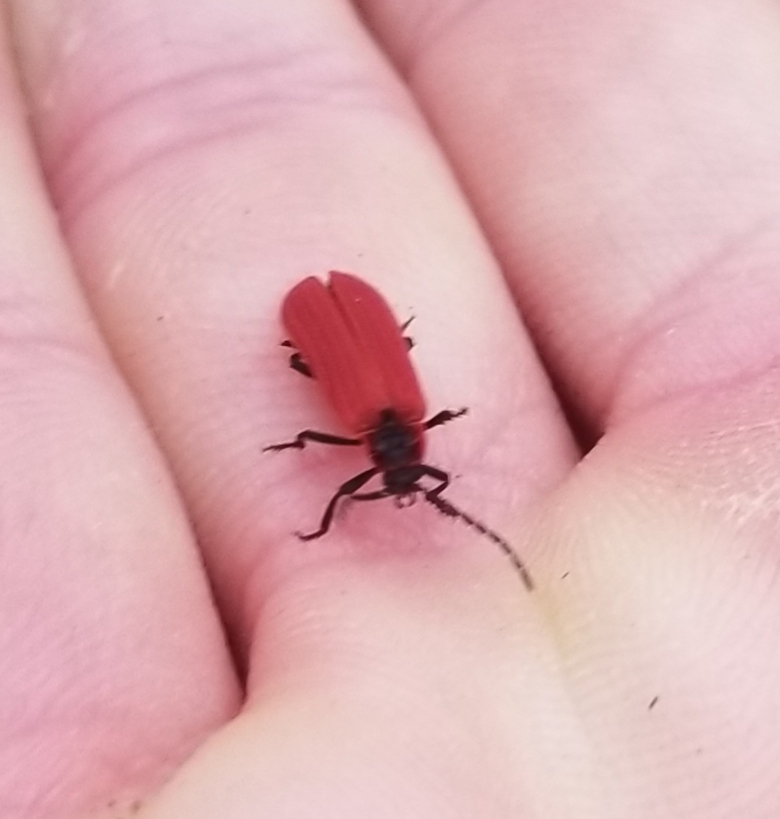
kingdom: Animalia
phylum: Arthropoda
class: Insecta
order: Coleoptera
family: Lycidae
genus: Dictyoptera
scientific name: Dictyoptera aurora
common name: Golden net-winged beetle
